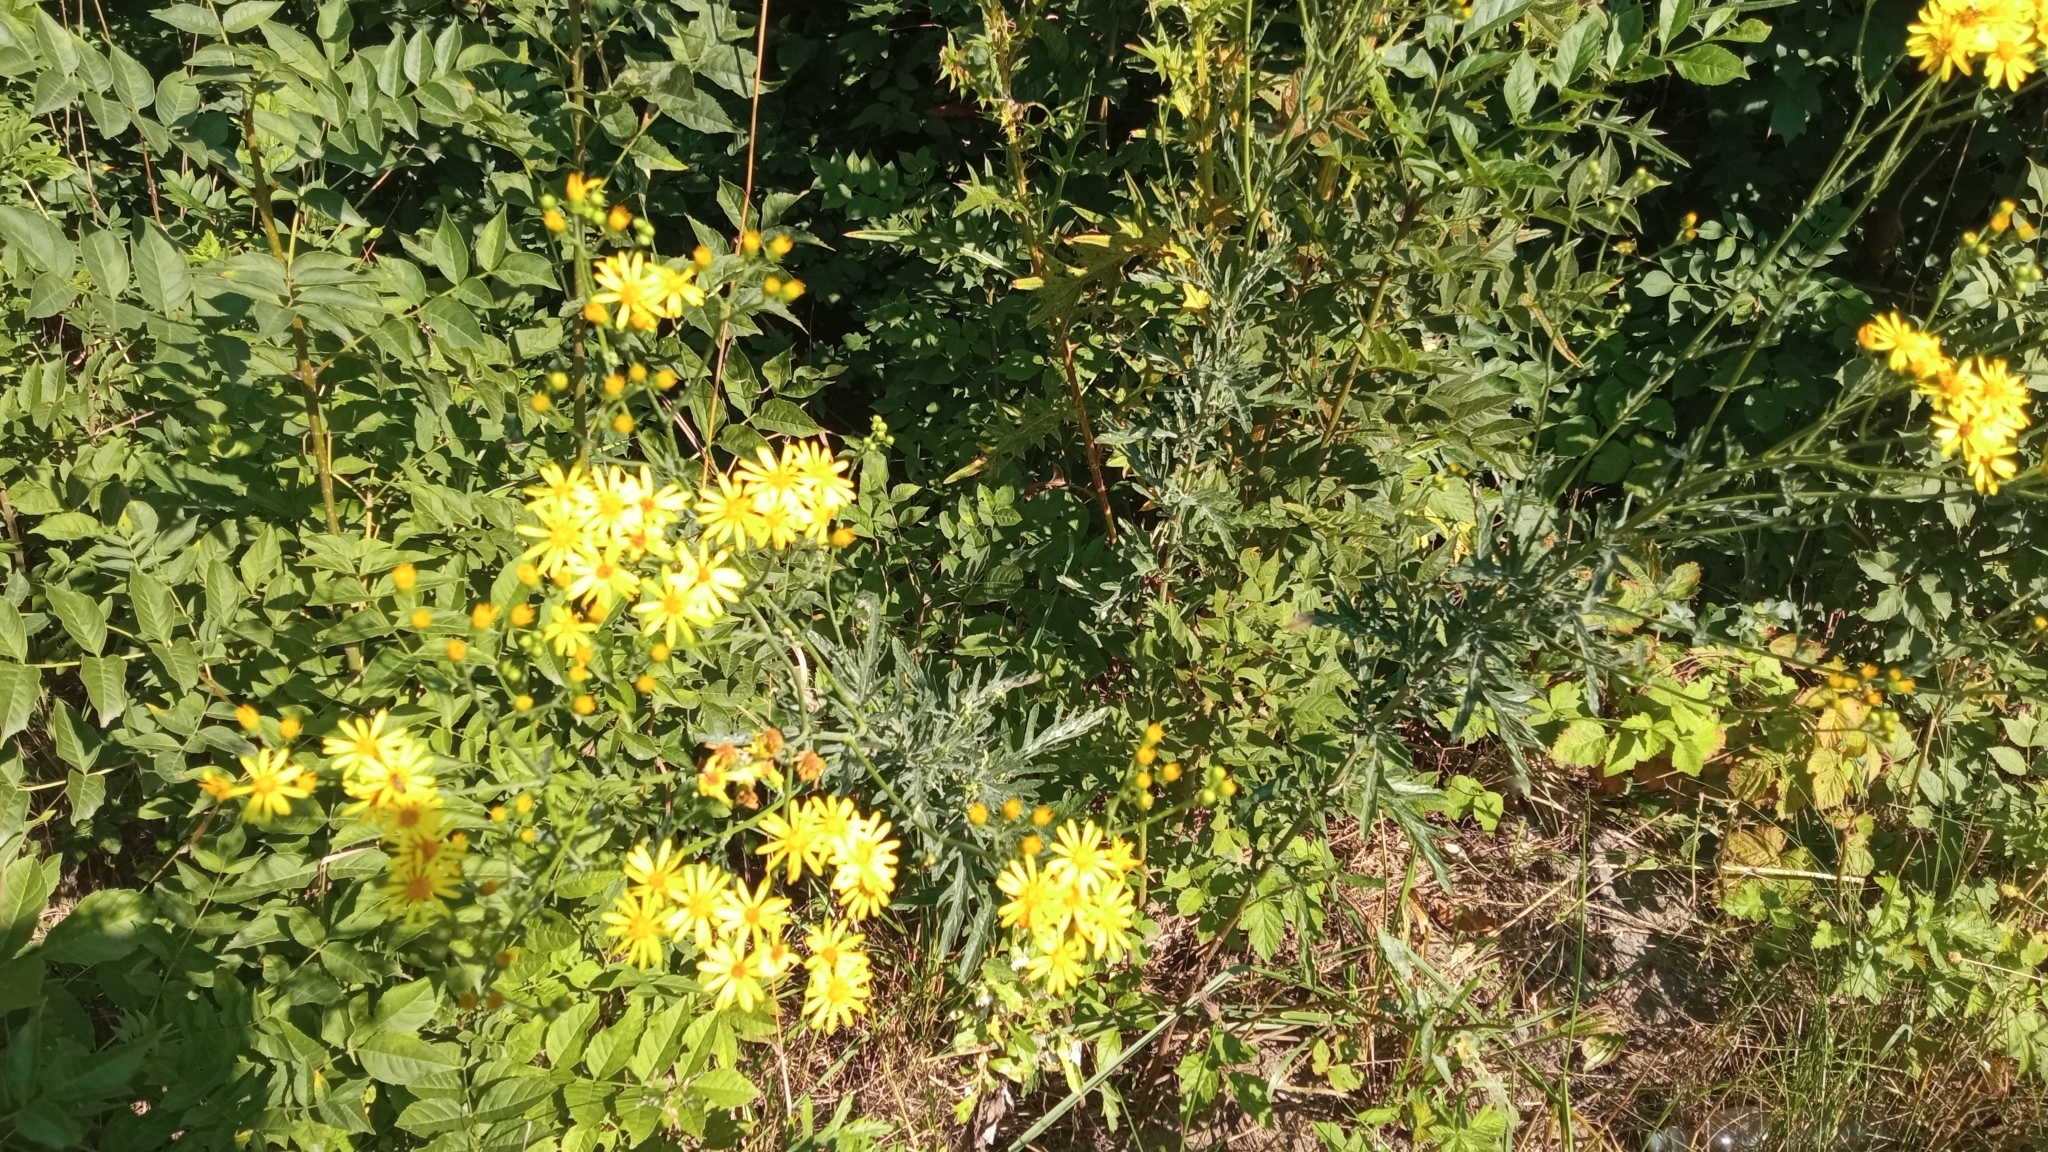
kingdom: Plantae
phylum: Tracheophyta
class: Magnoliopsida
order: Asterales
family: Asteraceae
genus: Jacobaea
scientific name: Jacobaea erucifolia
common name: Hoary ragwort
